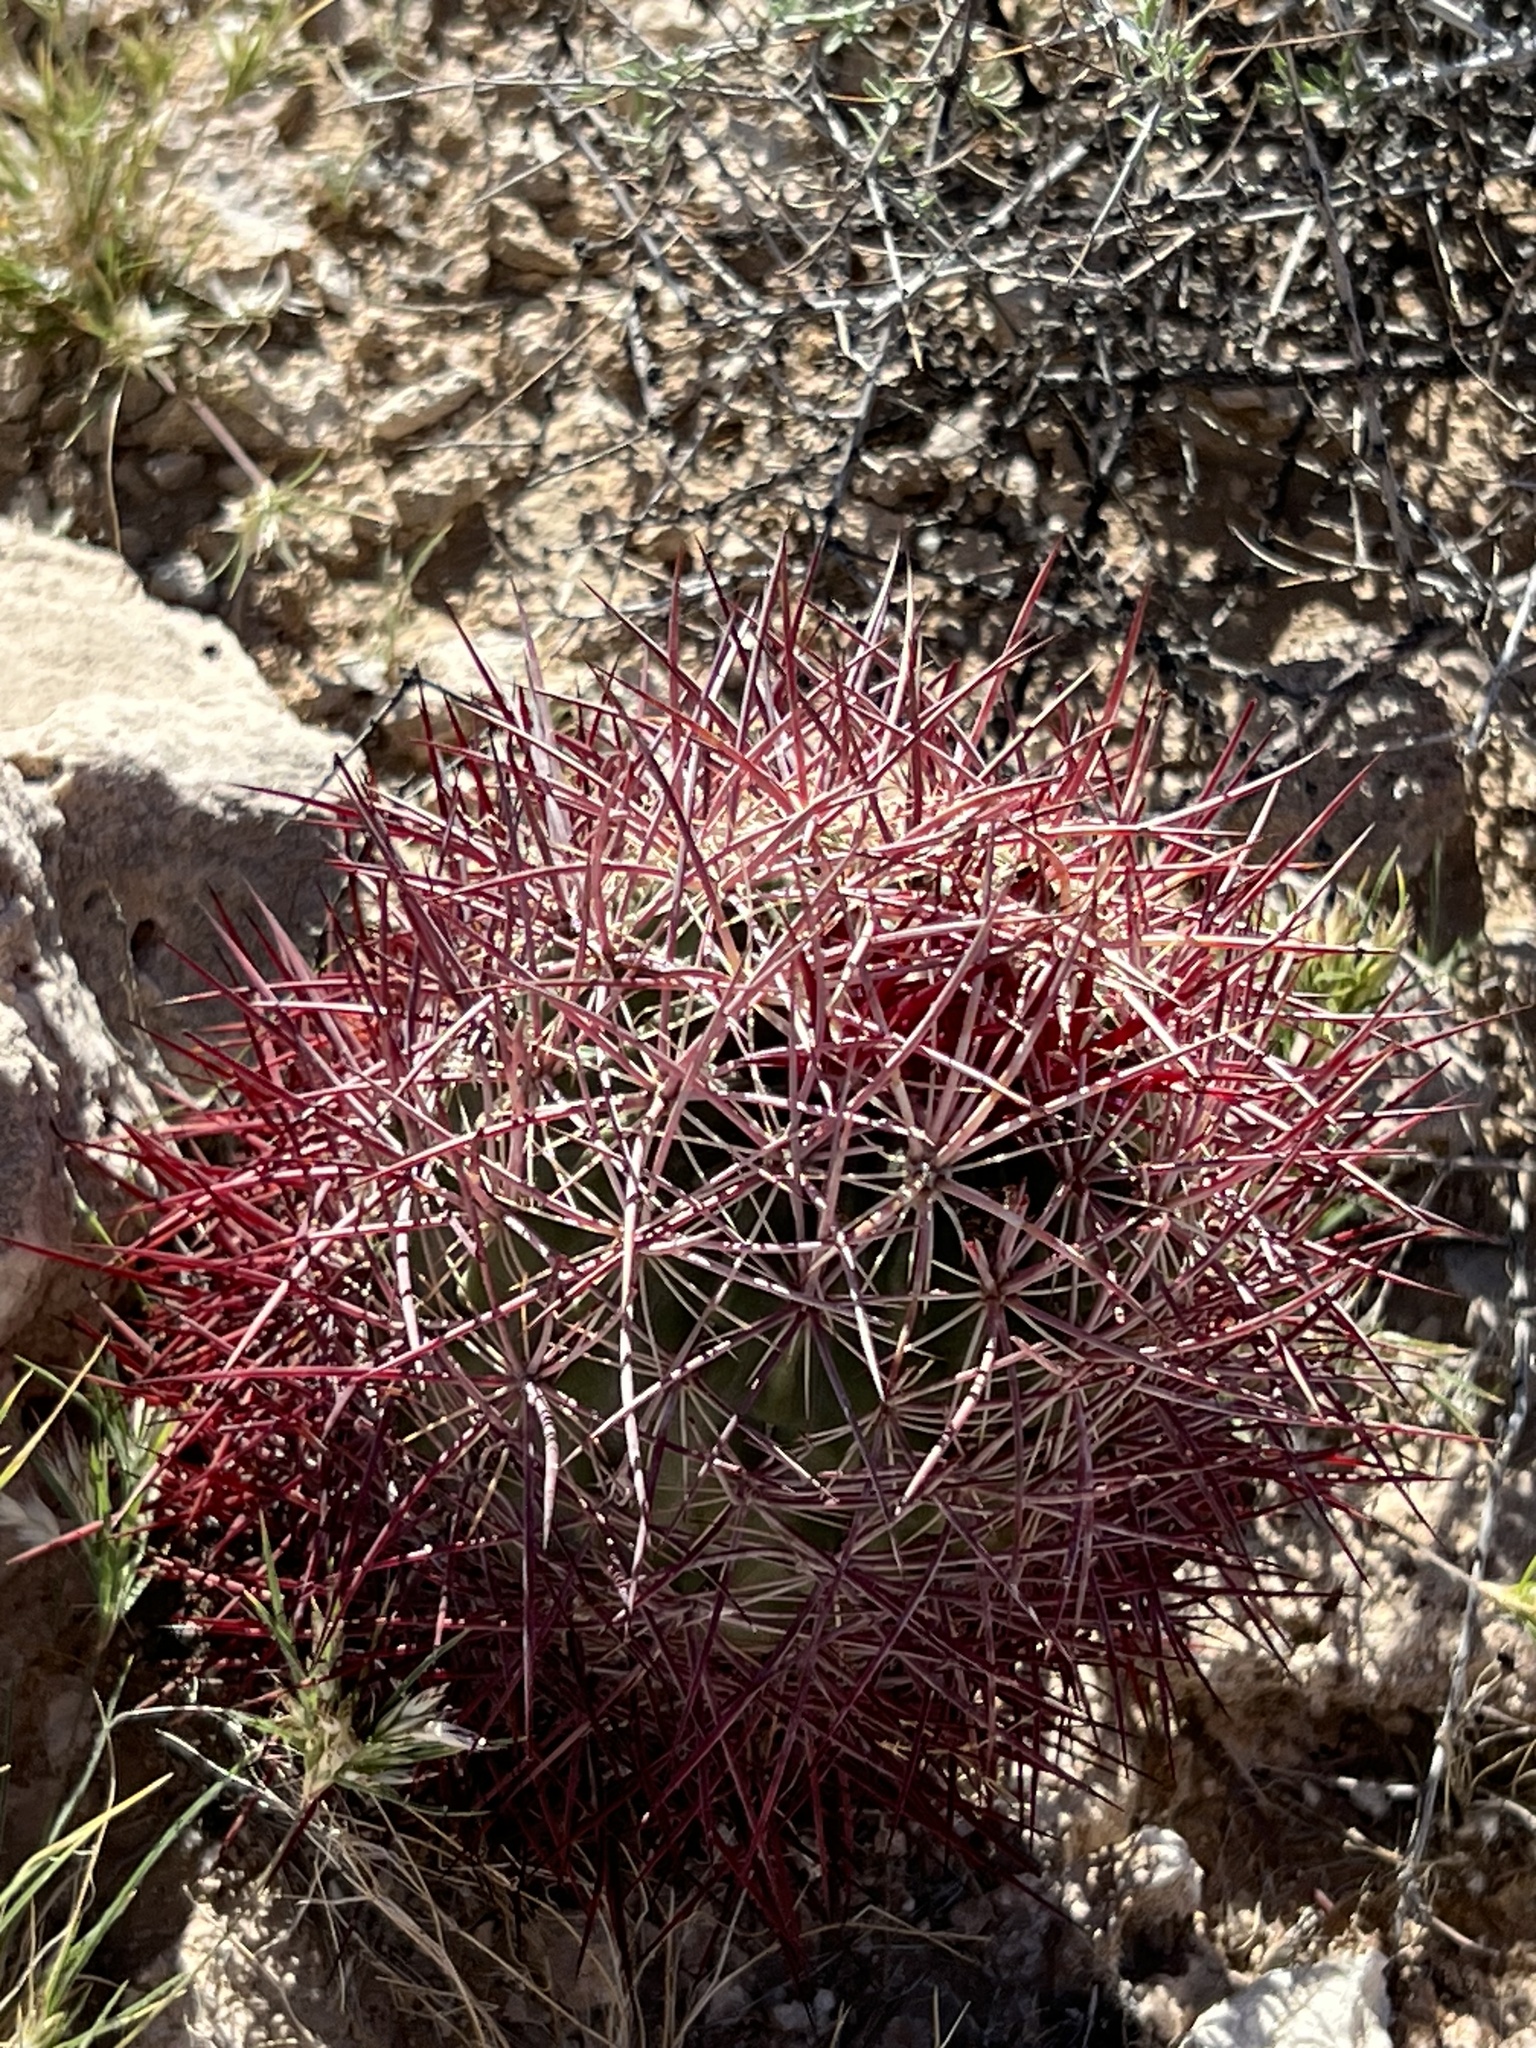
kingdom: Plantae
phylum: Tracheophyta
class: Magnoliopsida
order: Caryophyllales
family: Cactaceae
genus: Sclerocactus
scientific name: Sclerocactus johnsonii
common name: Eight-spine fishhook cactus
